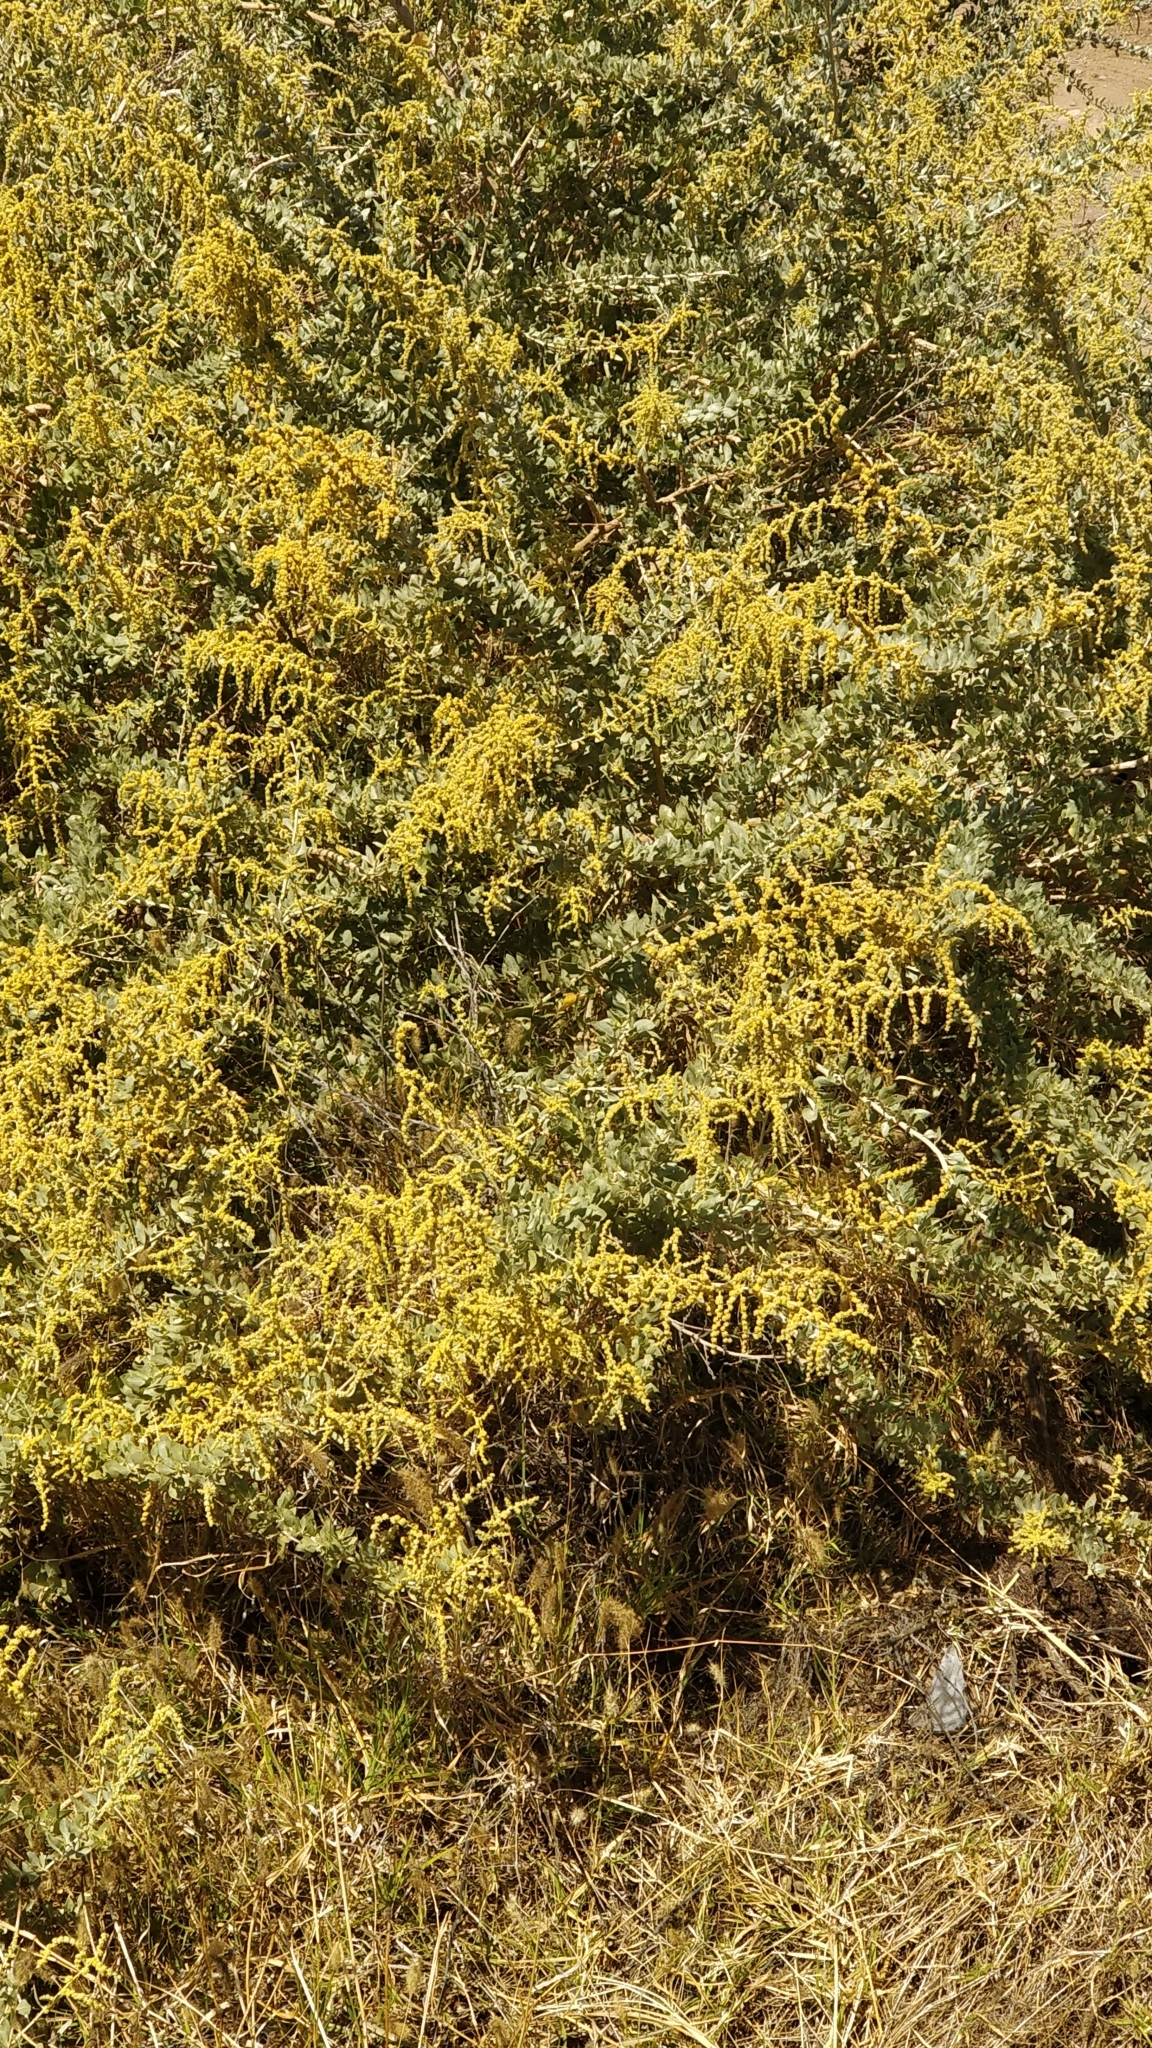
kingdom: Plantae
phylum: Tracheophyta
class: Magnoliopsida
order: Caryophyllales
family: Amaranthaceae
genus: Atriplex
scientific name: Atriplex halimus
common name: Shrubby orache
